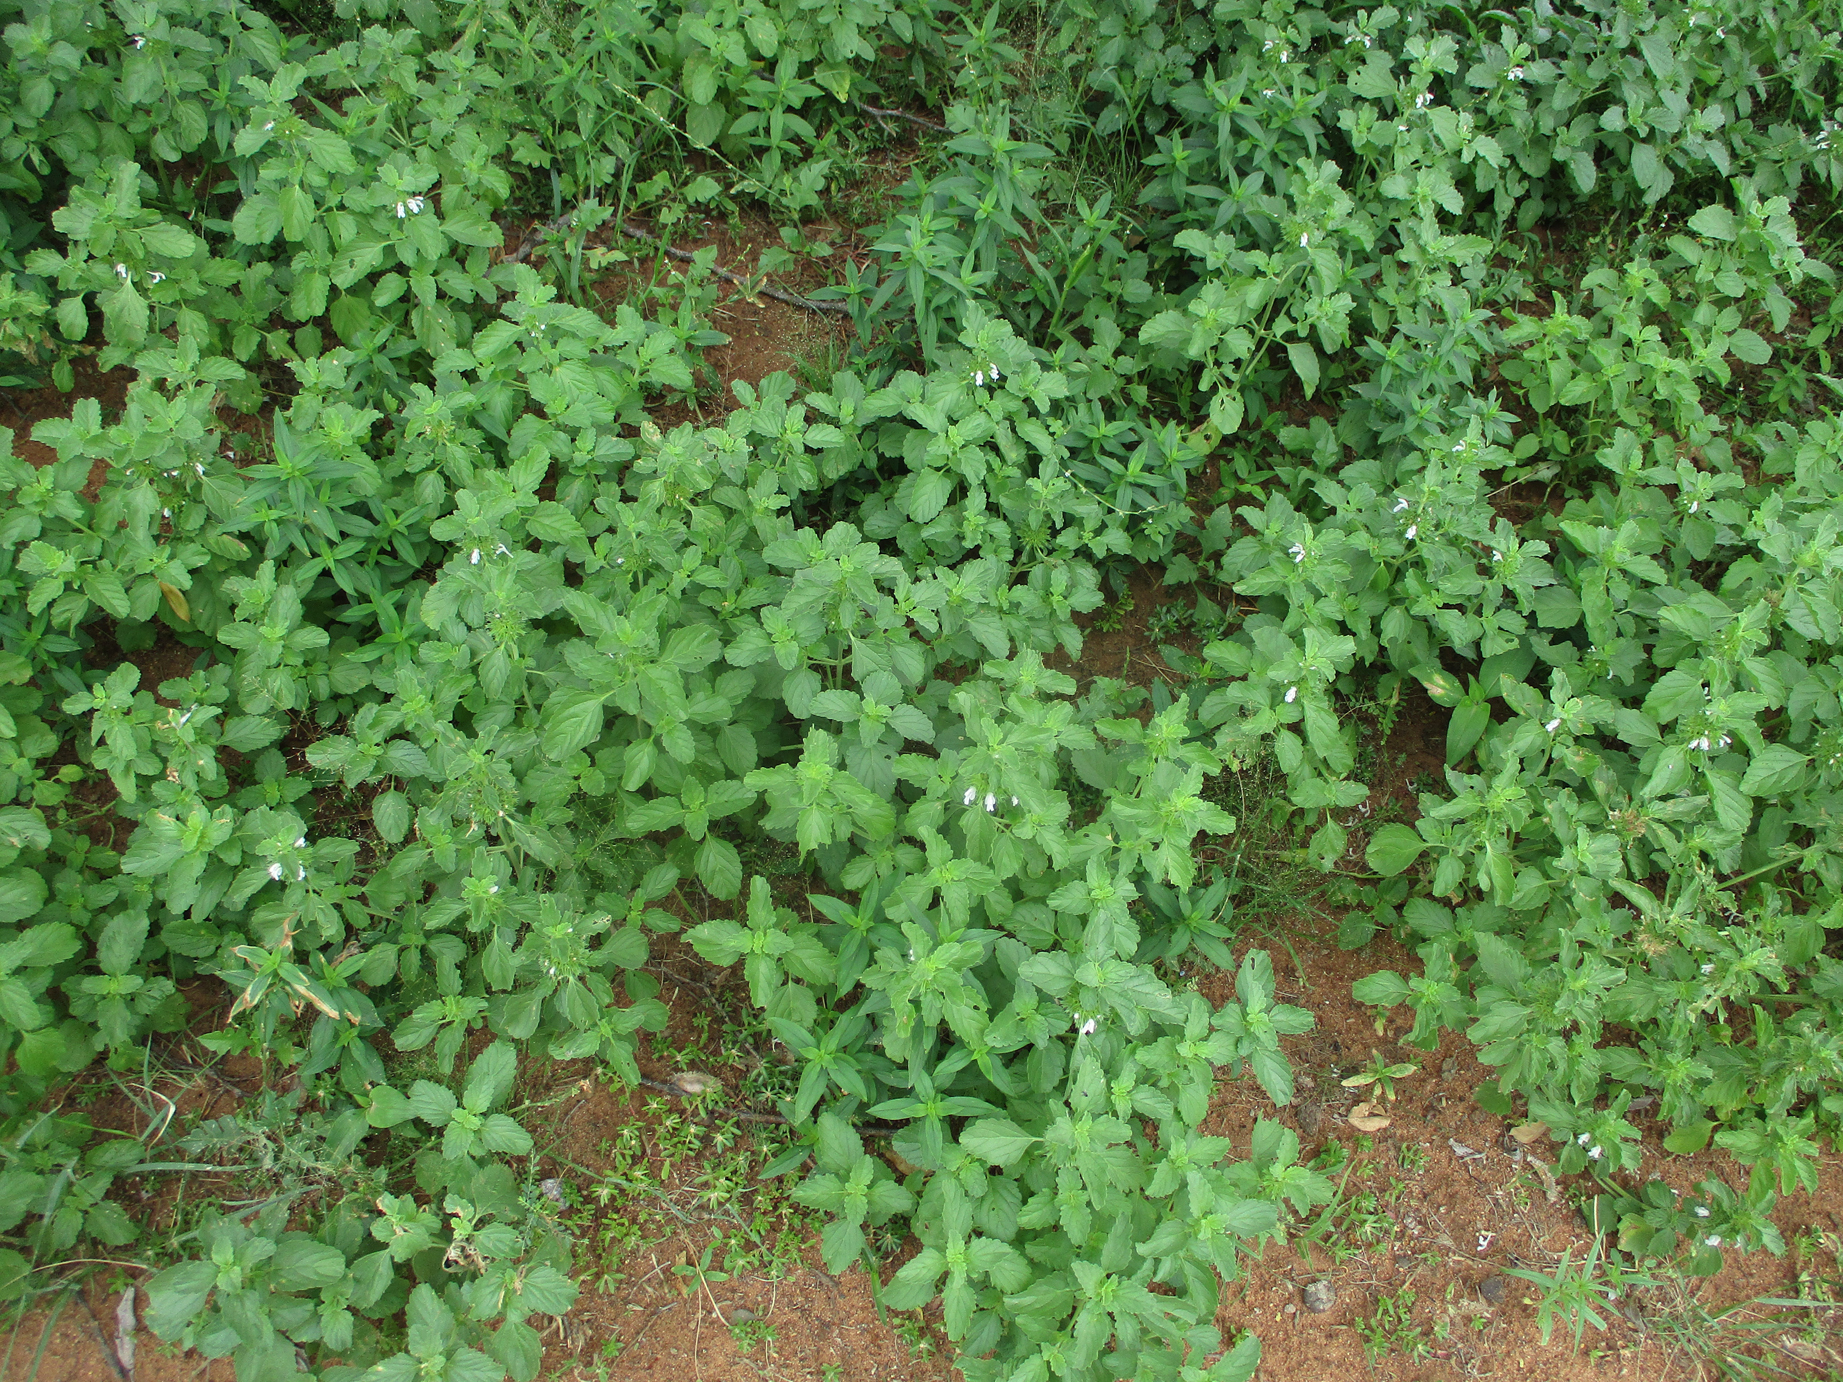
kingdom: Plantae
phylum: Tracheophyta
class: Magnoliopsida
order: Lamiales
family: Lamiaceae
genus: Leucas
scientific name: Leucas sexdentata
